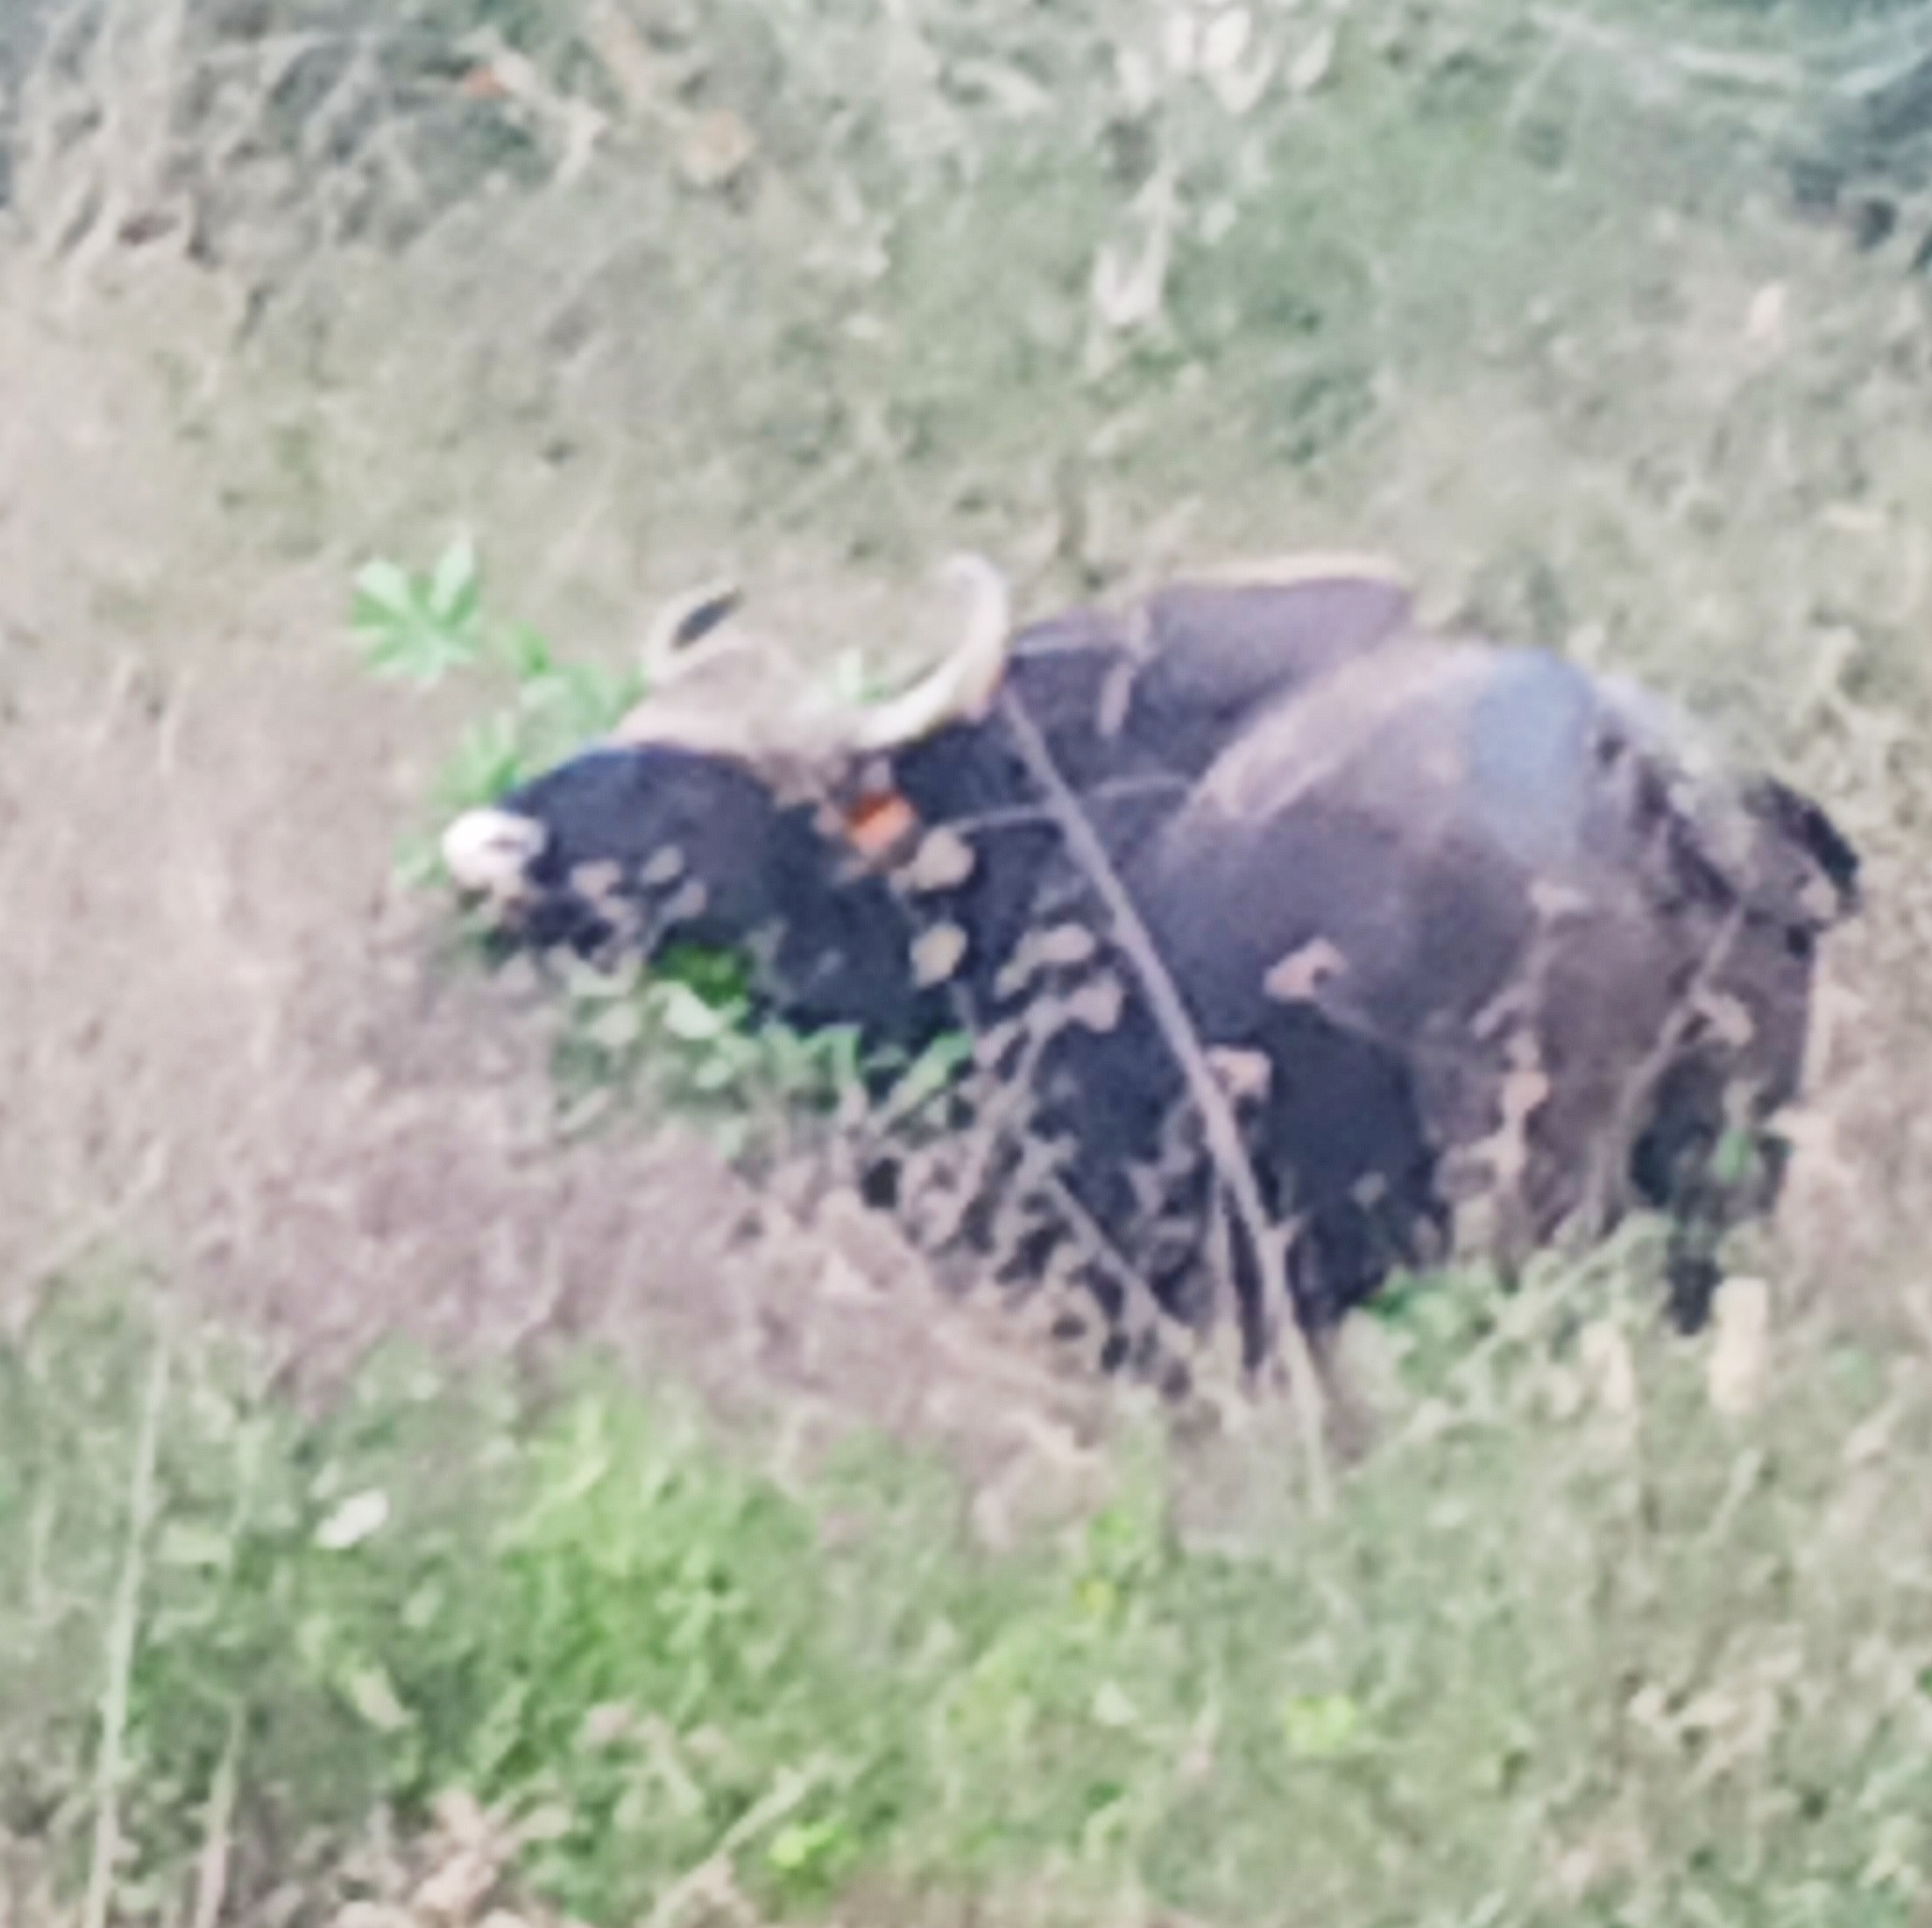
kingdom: Animalia
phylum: Chordata
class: Mammalia
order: Artiodactyla
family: Bovidae
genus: Bos
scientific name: Bos frontalis
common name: Gaur
